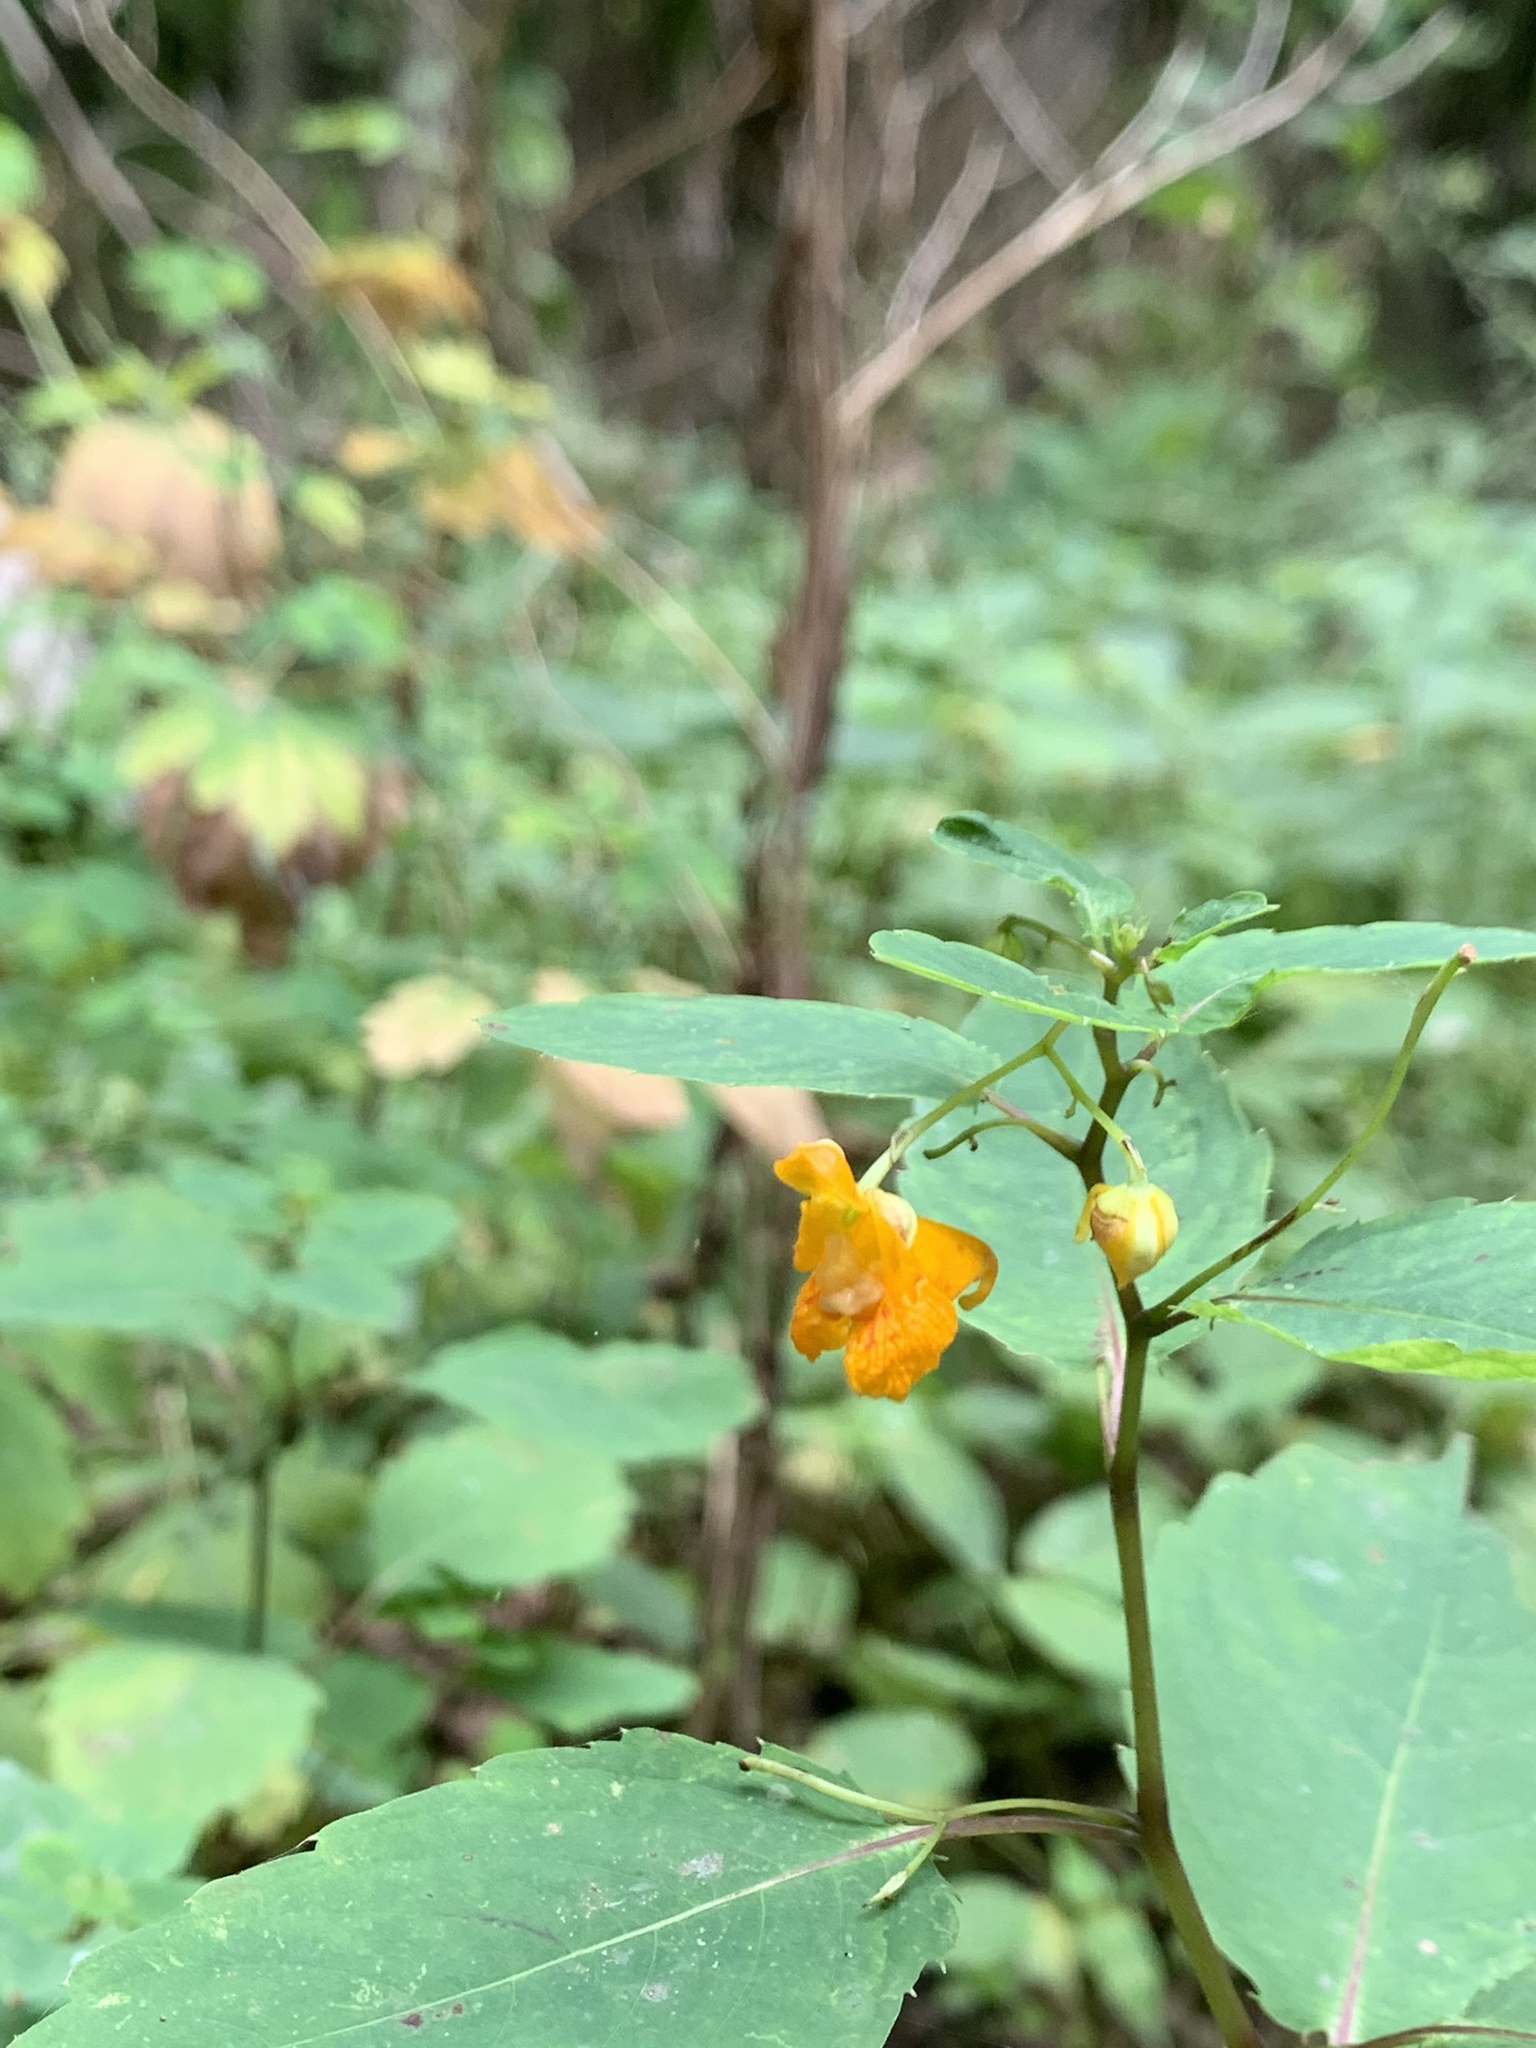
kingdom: Plantae
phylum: Tracheophyta
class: Magnoliopsida
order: Ericales
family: Balsaminaceae
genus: Impatiens
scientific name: Impatiens capensis
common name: Orange balsam
